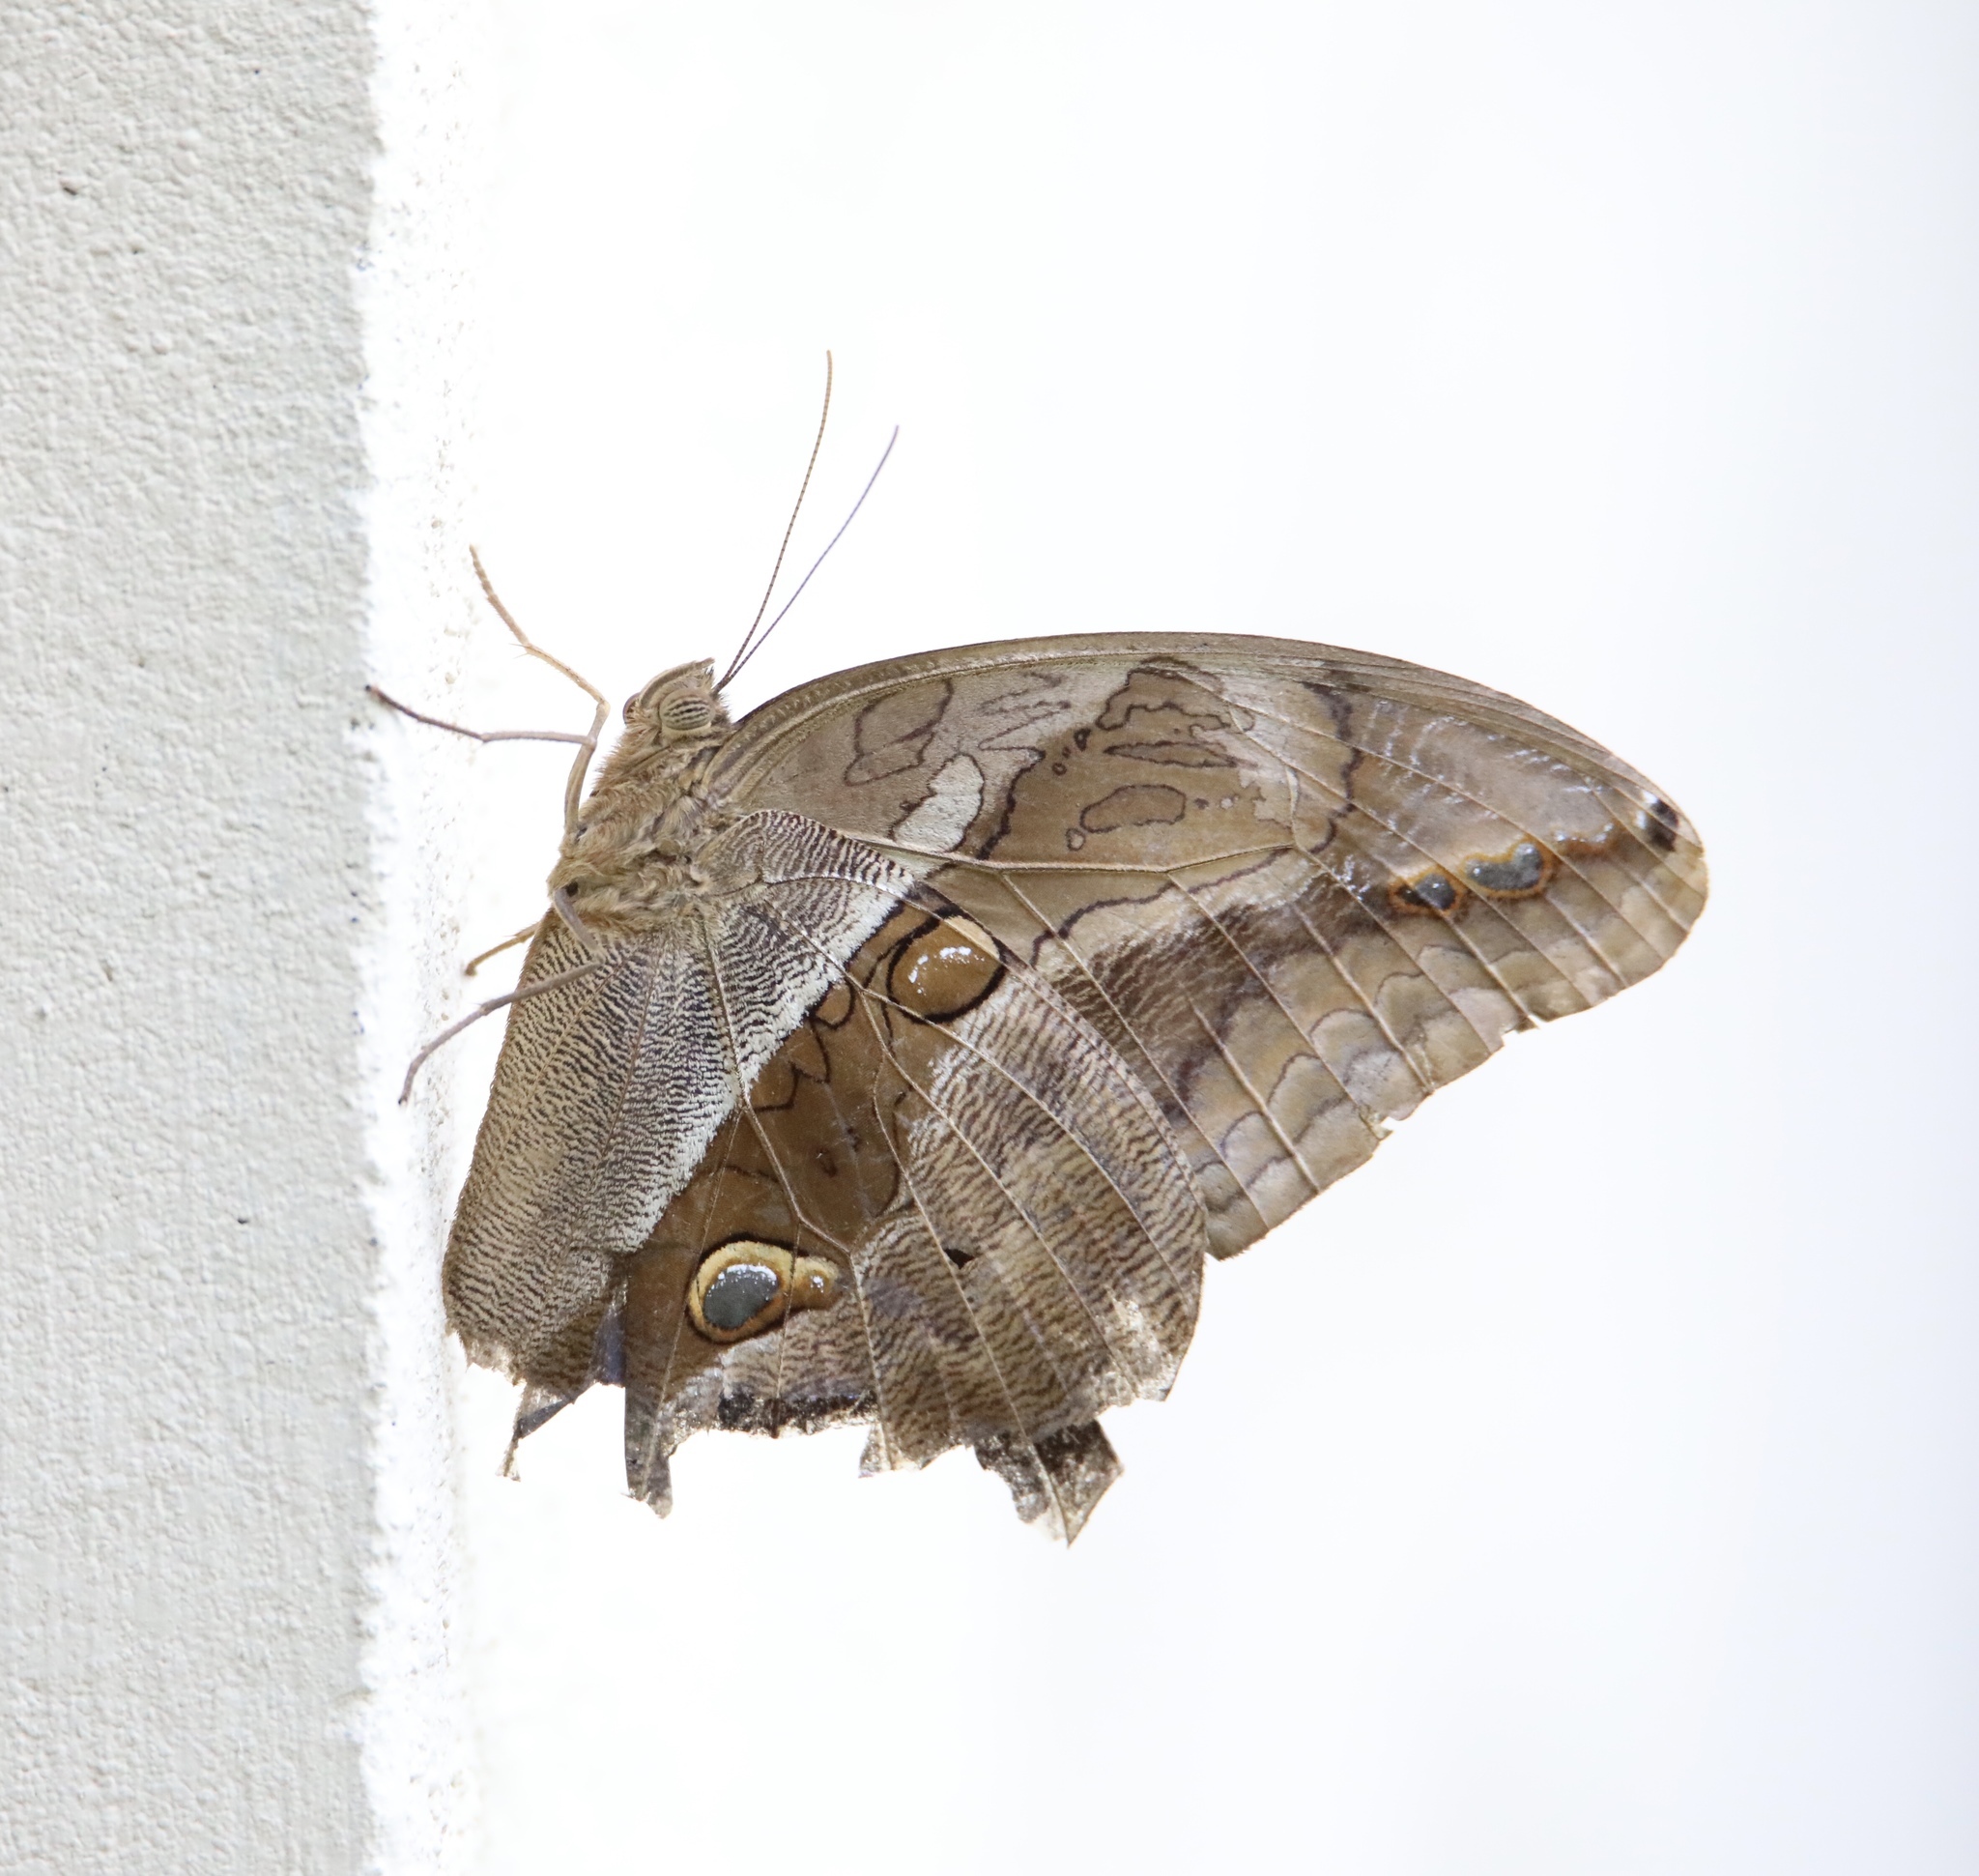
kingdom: Animalia
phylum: Arthropoda
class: Insecta
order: Lepidoptera
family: Nymphalidae
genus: Eryphanis
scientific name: Eryphanis lycomedon
